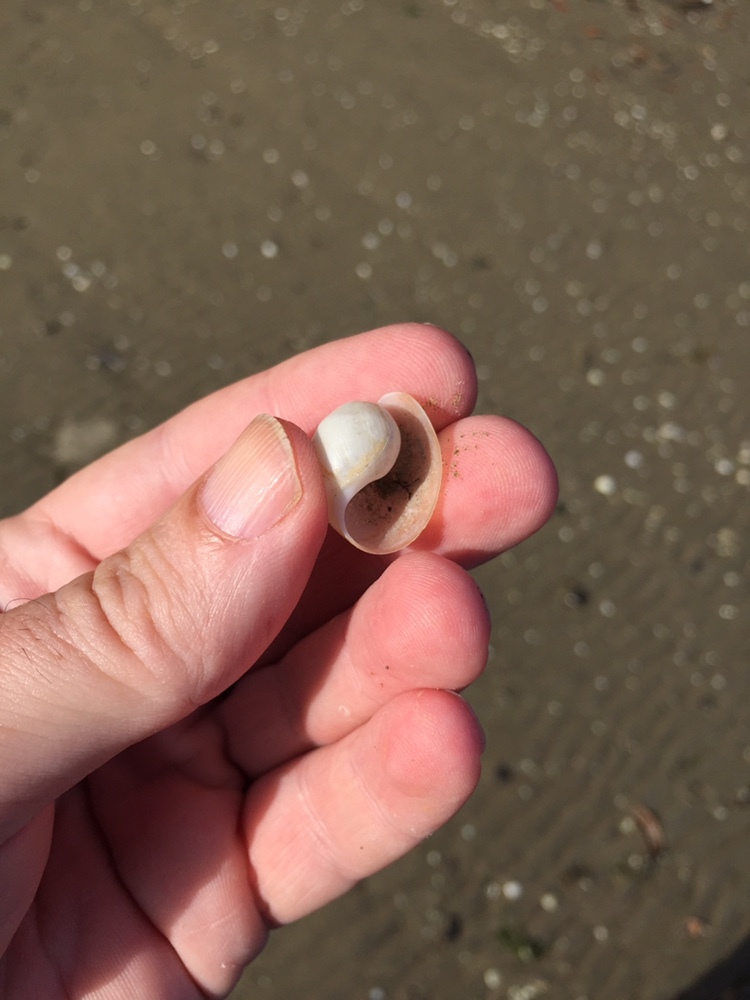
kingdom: Animalia
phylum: Mollusca
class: Gastropoda
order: Cephalaspidea
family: Haminoeidae
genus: Papawera
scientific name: Papawera zelandiae
